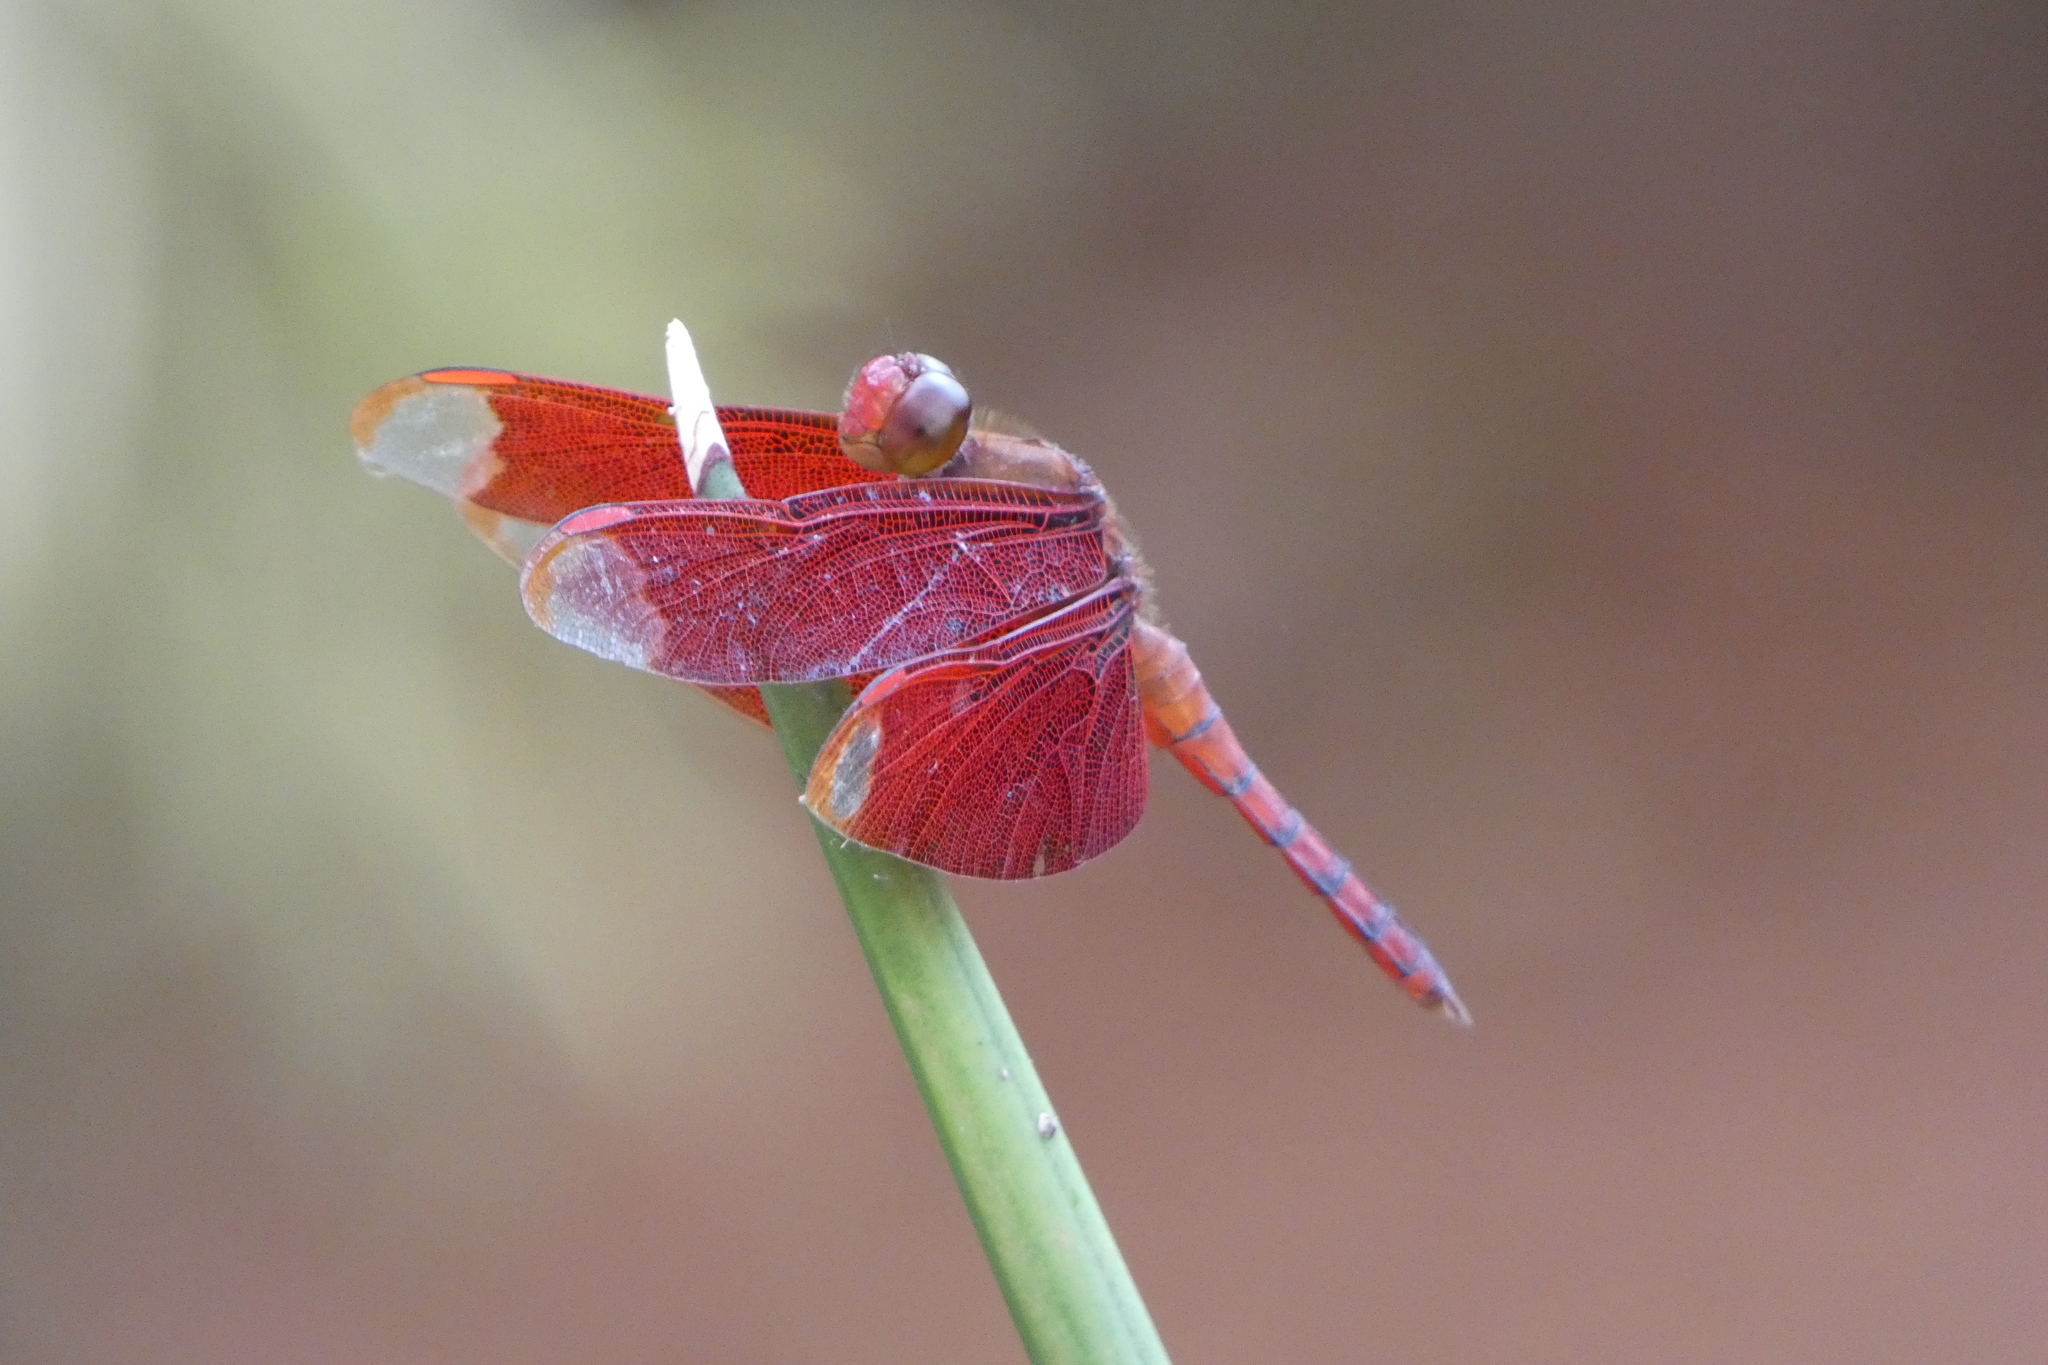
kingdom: Animalia
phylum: Arthropoda
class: Insecta
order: Odonata
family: Libellulidae
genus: Neurothemis
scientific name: Neurothemis fulvia
